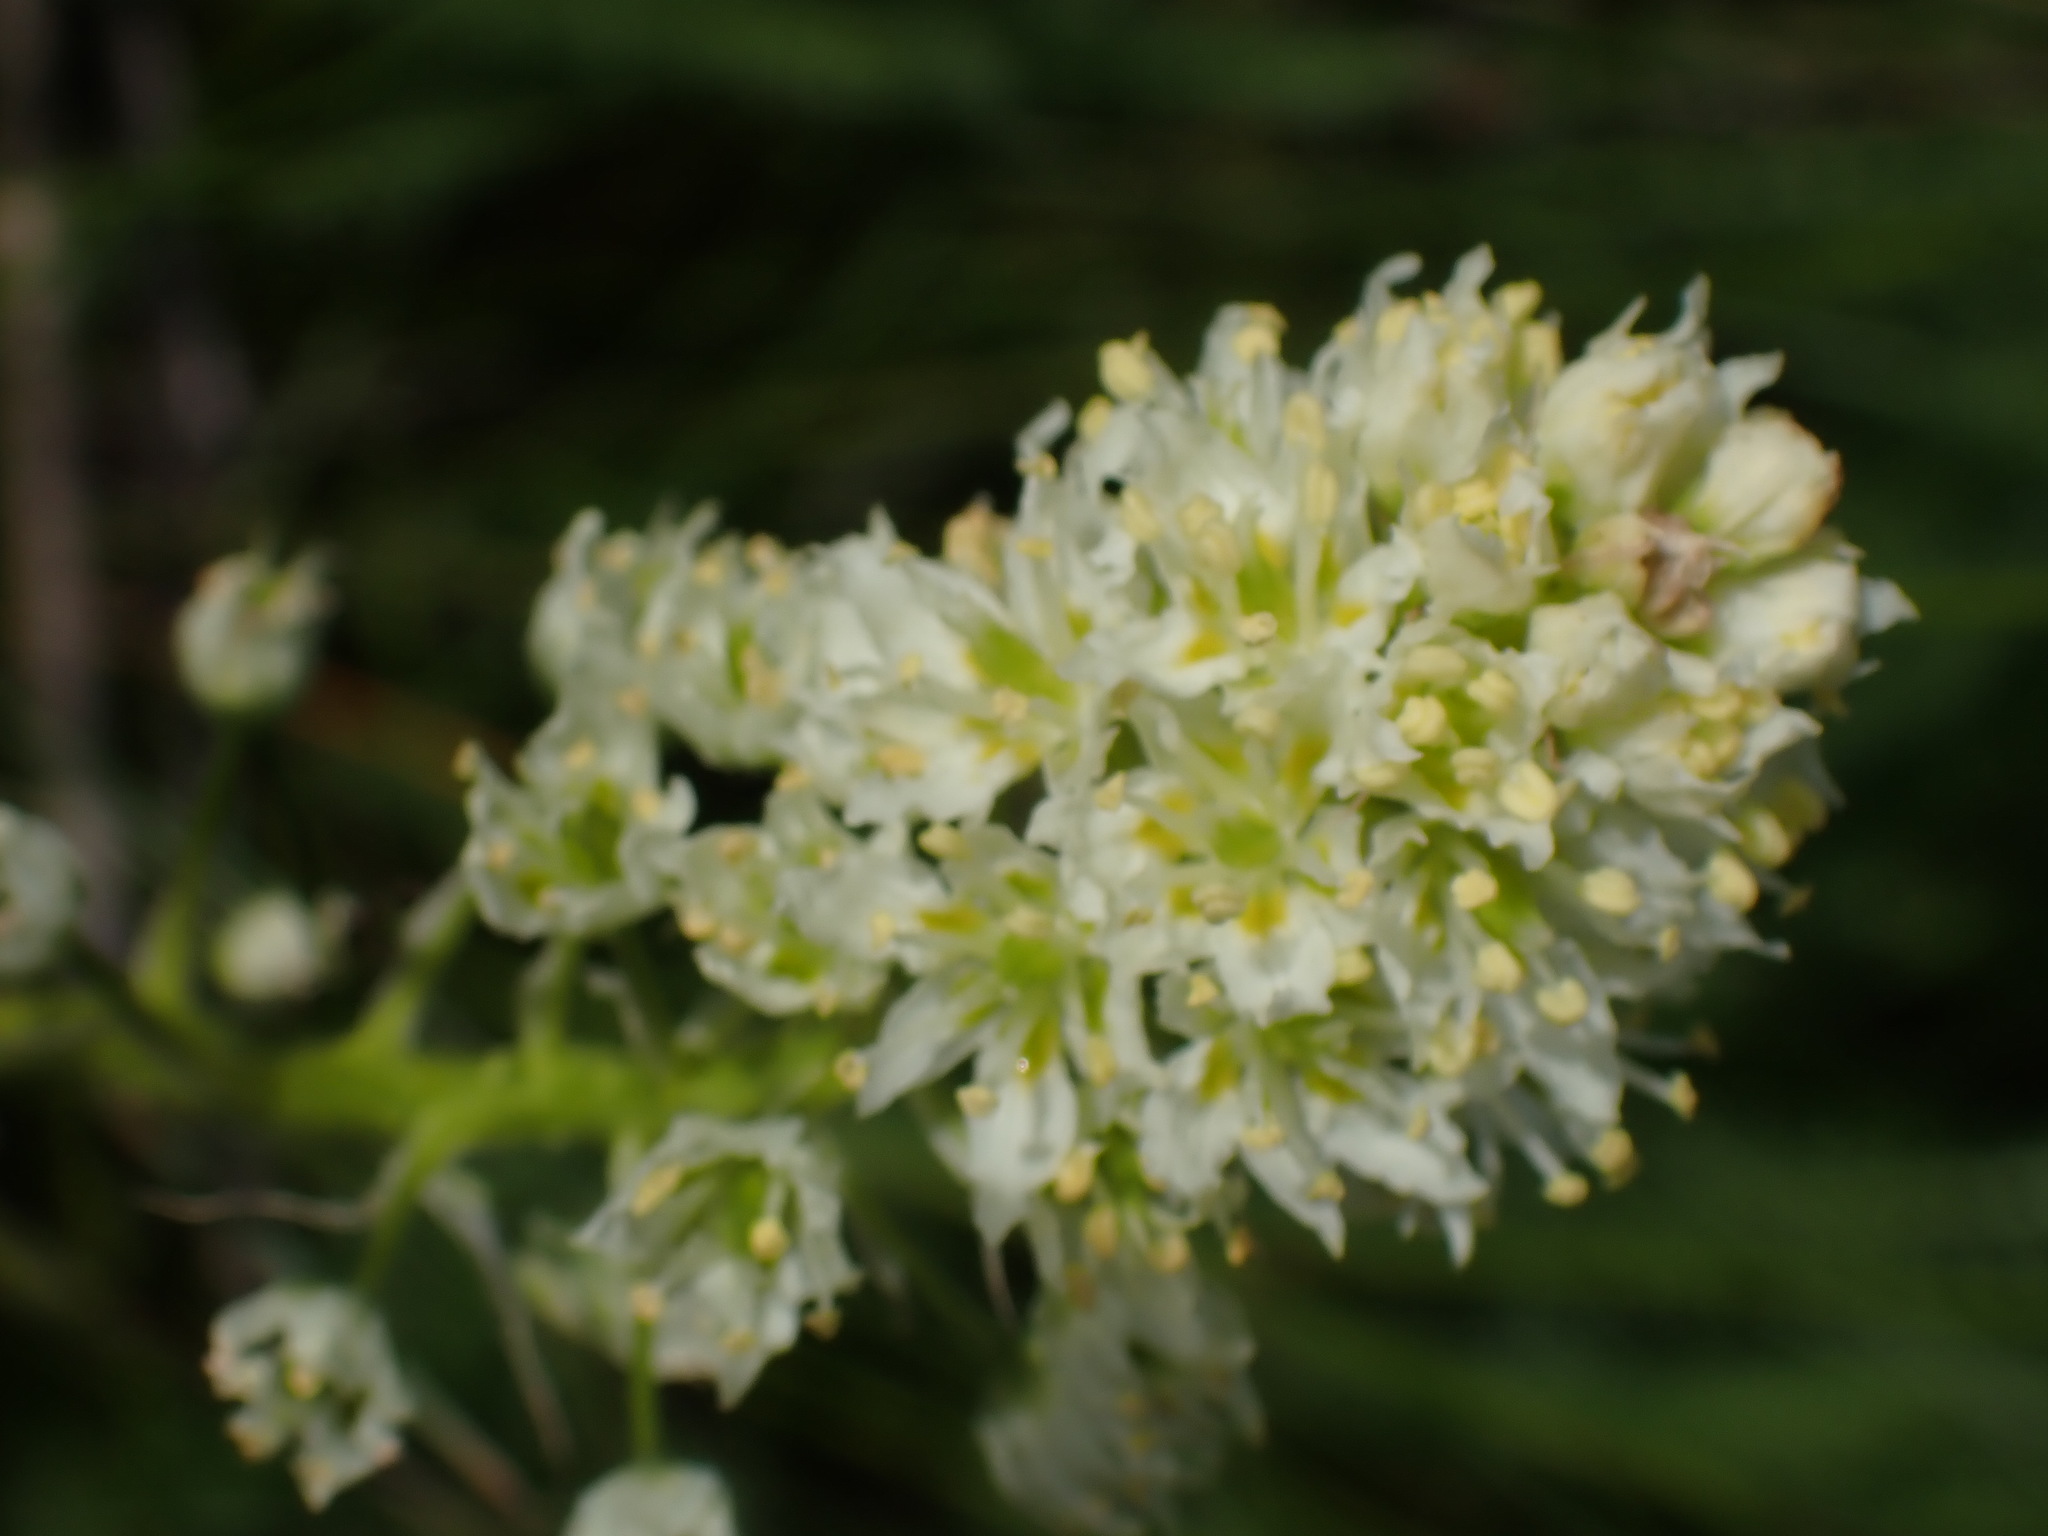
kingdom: Plantae
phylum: Tracheophyta
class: Liliopsida
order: Liliales
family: Melanthiaceae
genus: Toxicoscordion
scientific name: Toxicoscordion venenosum
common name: Meadow death camas
